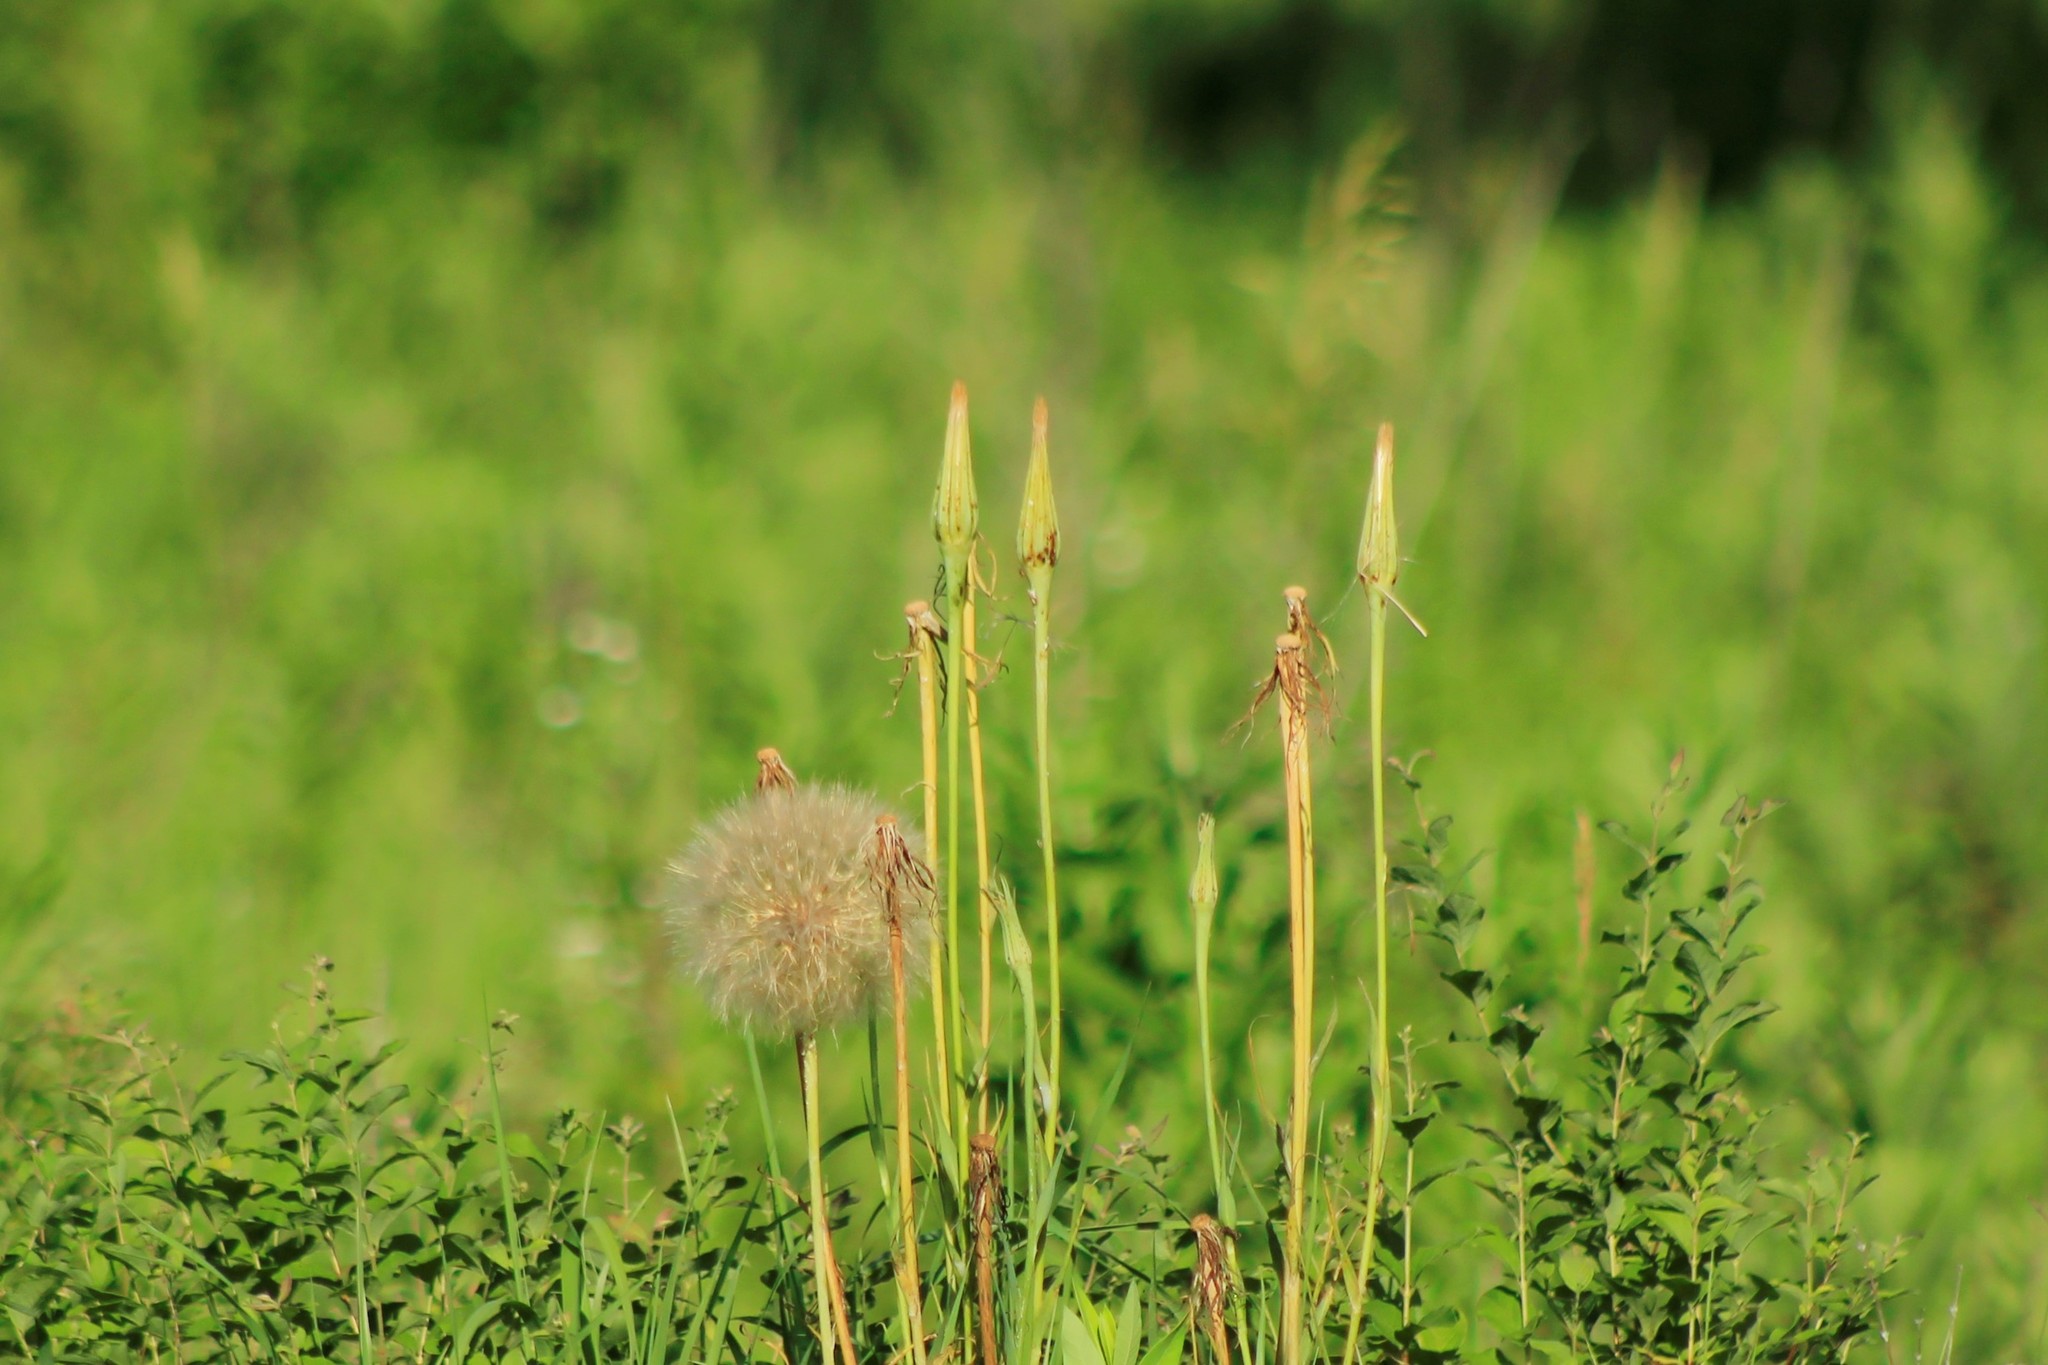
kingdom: Plantae
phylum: Tracheophyta
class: Magnoliopsida
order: Asterales
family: Asteraceae
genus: Tragopogon
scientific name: Tragopogon dubius
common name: Yellow salsify
